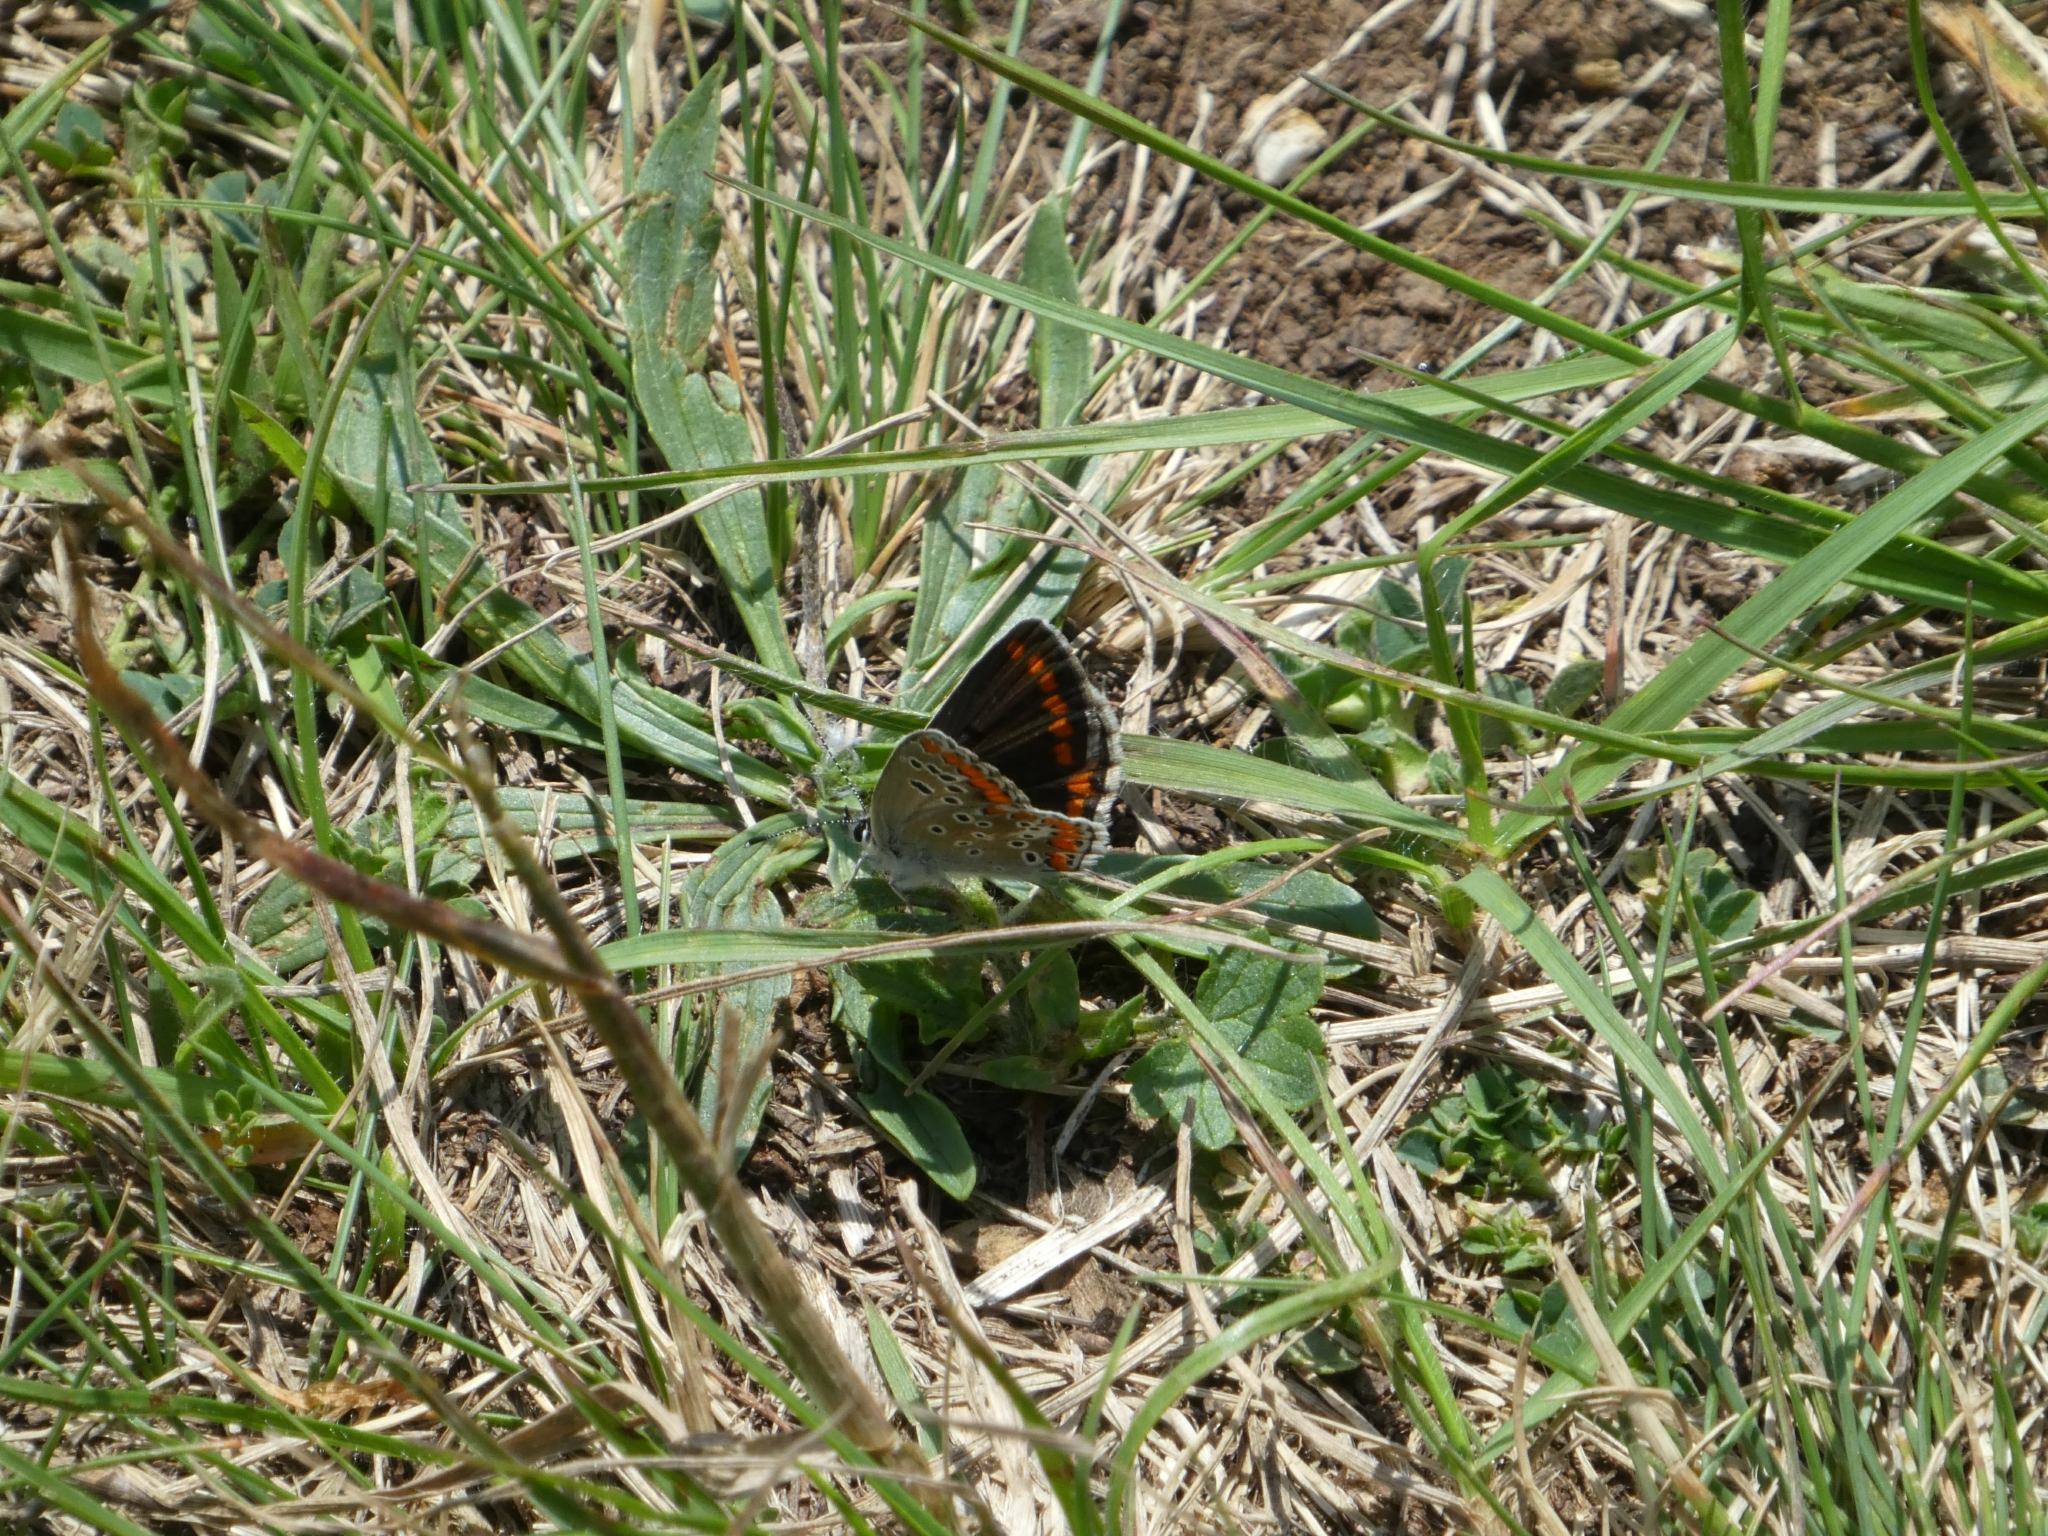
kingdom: Animalia
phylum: Arthropoda
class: Insecta
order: Lepidoptera
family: Lycaenidae
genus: Aricia
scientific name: Aricia agestis
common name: Brown argus
